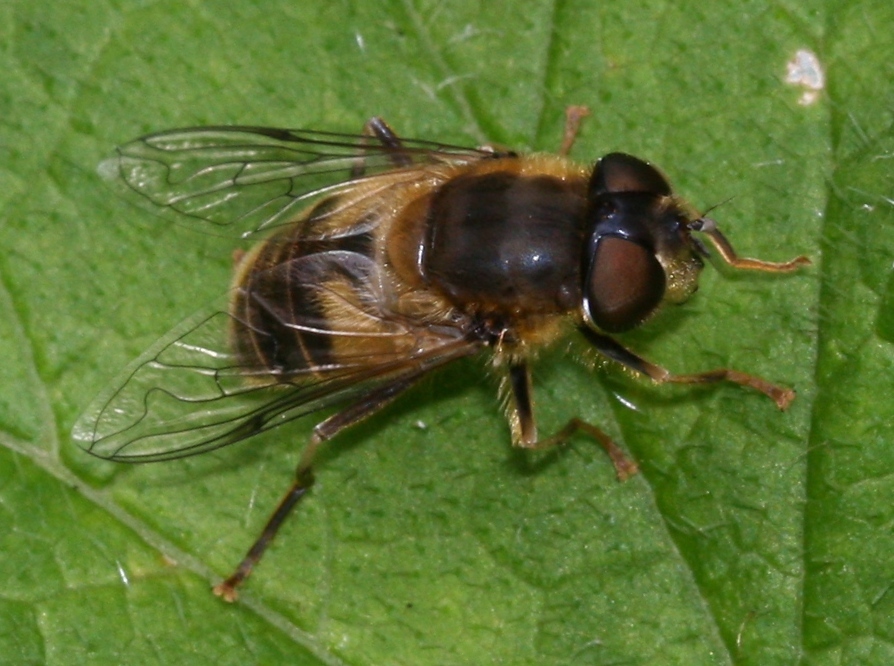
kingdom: Animalia
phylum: Arthropoda
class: Insecta
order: Diptera
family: Syrphidae
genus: Eristalis
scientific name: Eristalis pertinax
